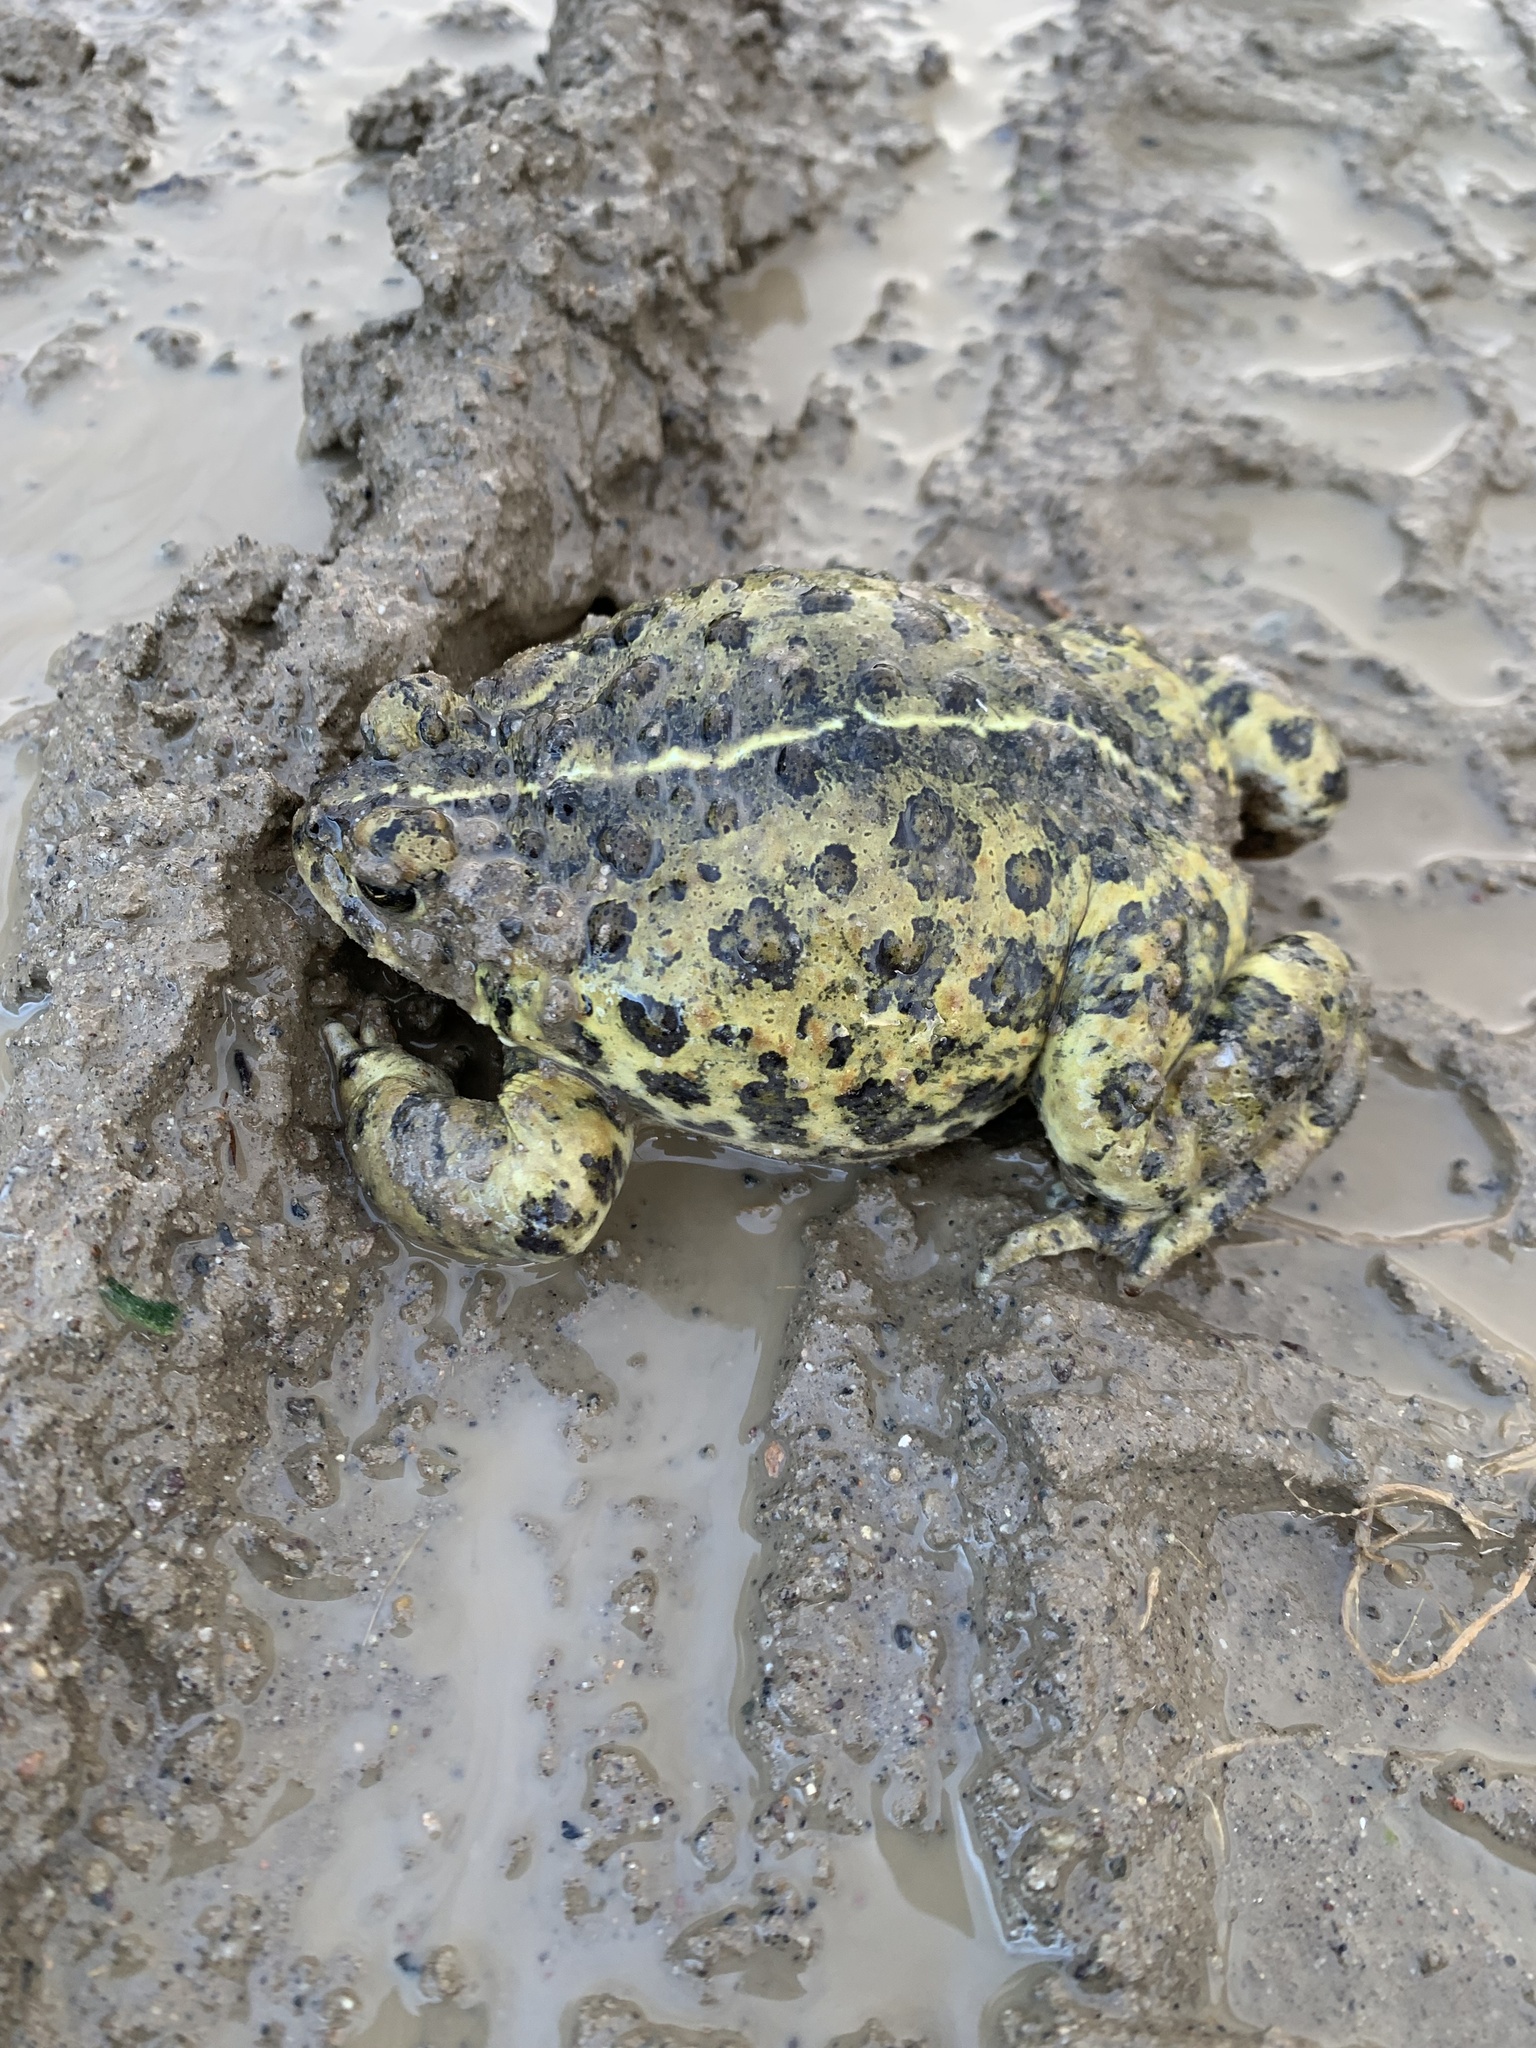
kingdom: Animalia
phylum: Chordata
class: Amphibia
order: Anura
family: Bufonidae
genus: Anaxyrus
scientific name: Anaxyrus boreas
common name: Western toad
